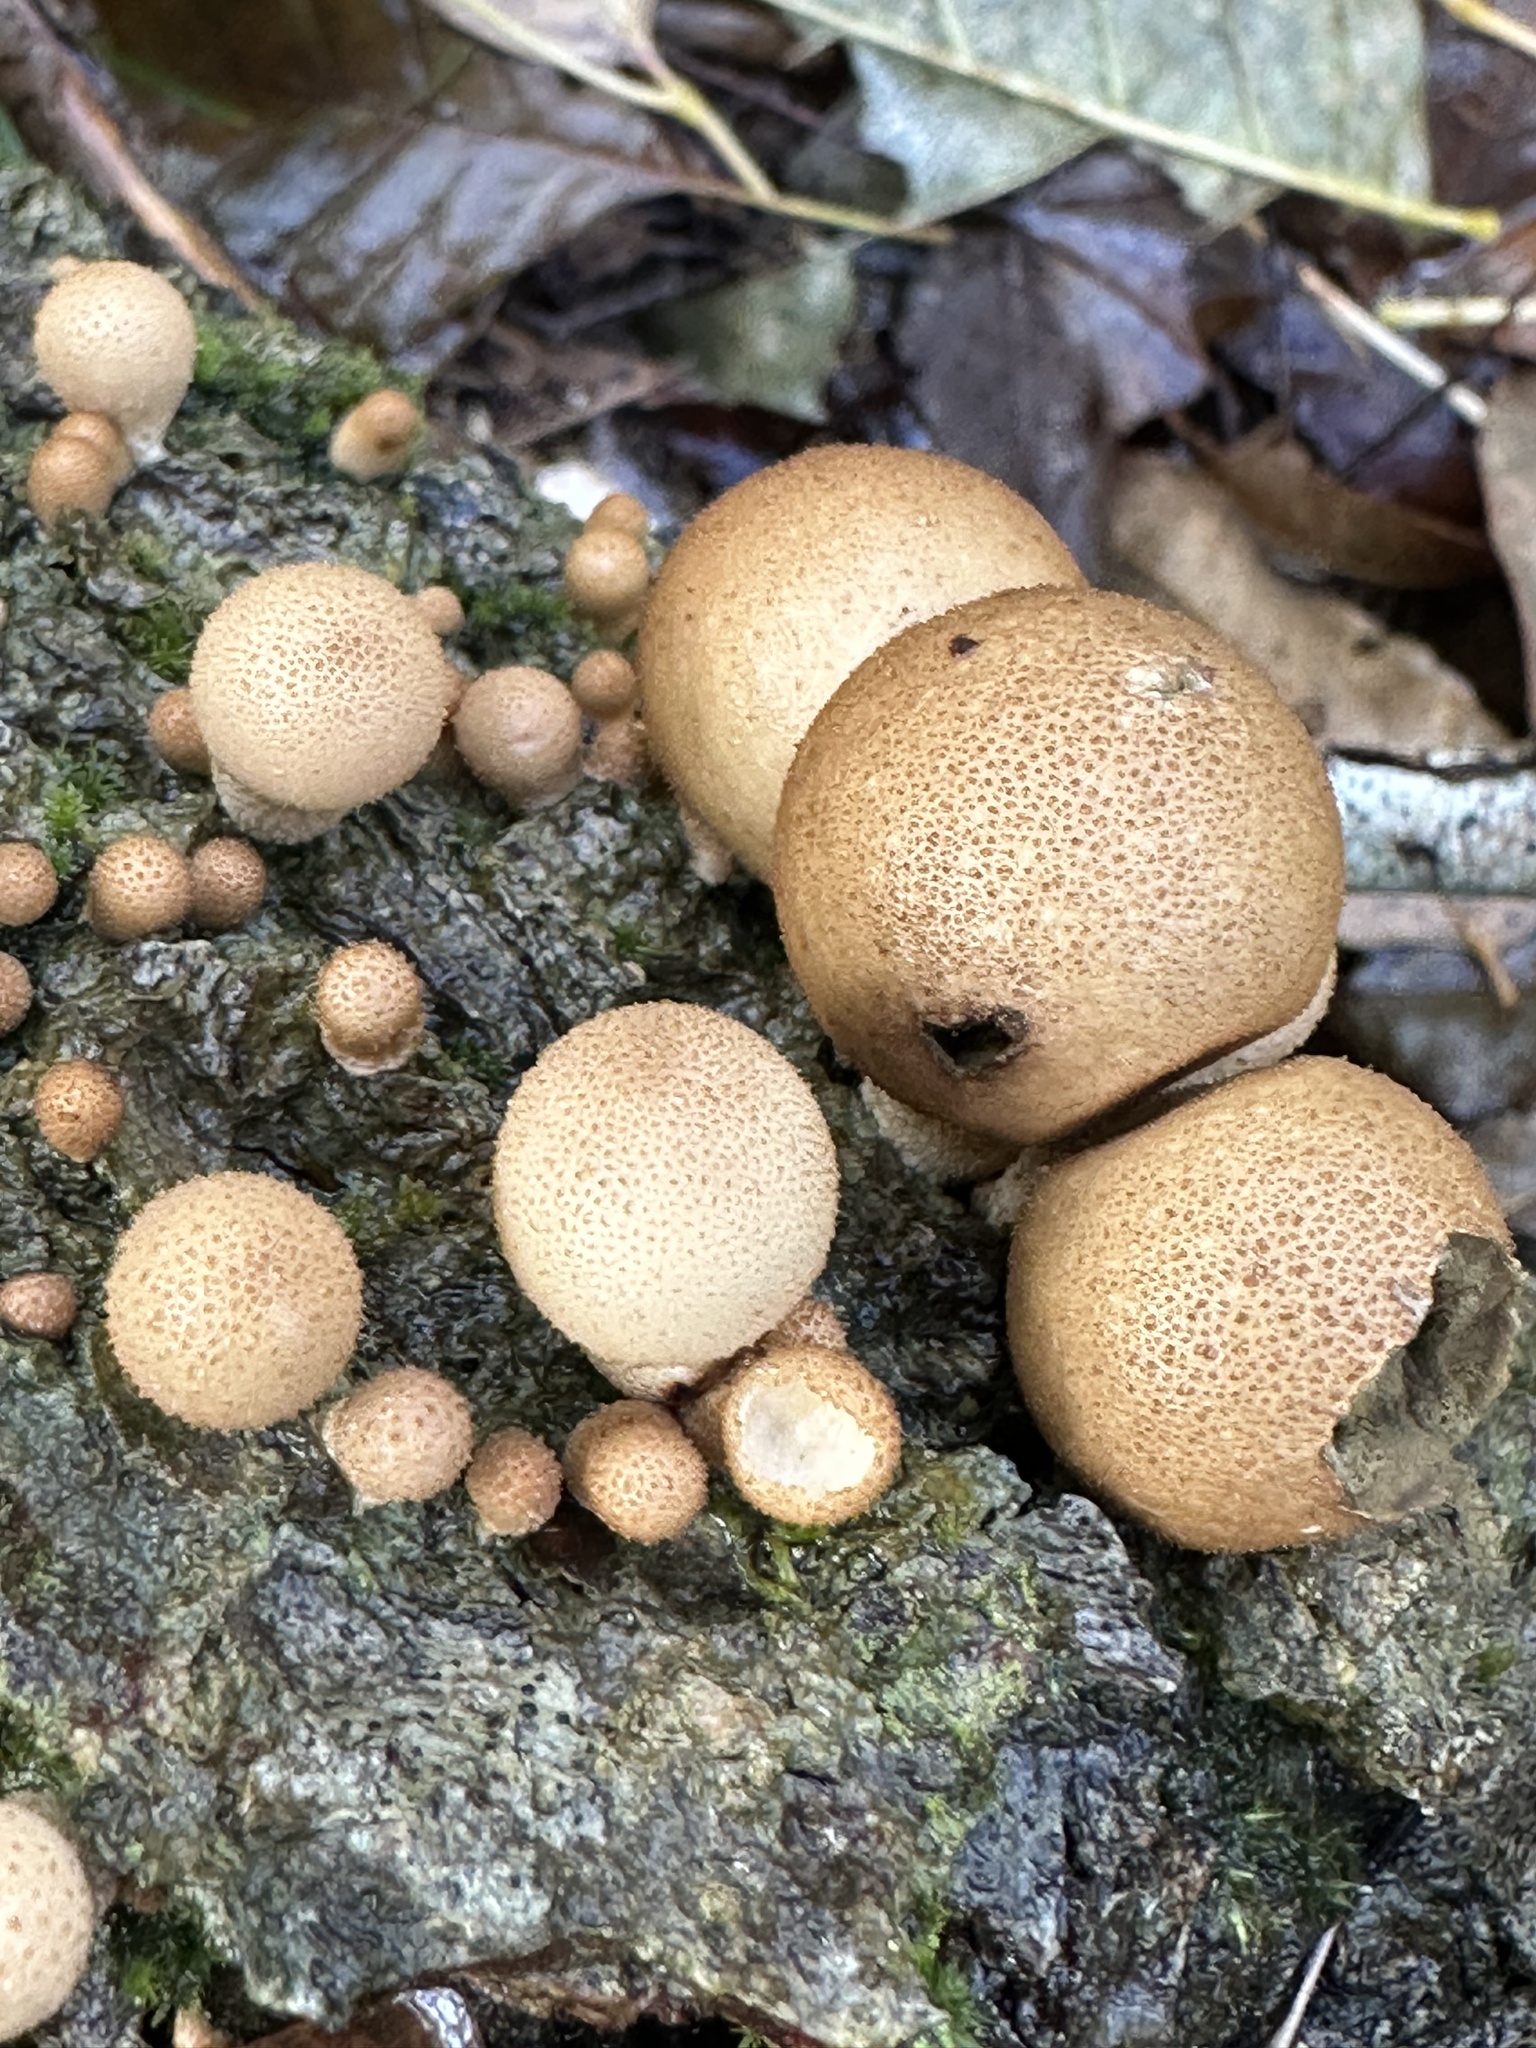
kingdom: Fungi
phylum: Basidiomycota
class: Agaricomycetes
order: Agaricales
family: Lycoperdaceae
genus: Apioperdon
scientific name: Apioperdon pyriforme
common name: Pear-shaped puffball
